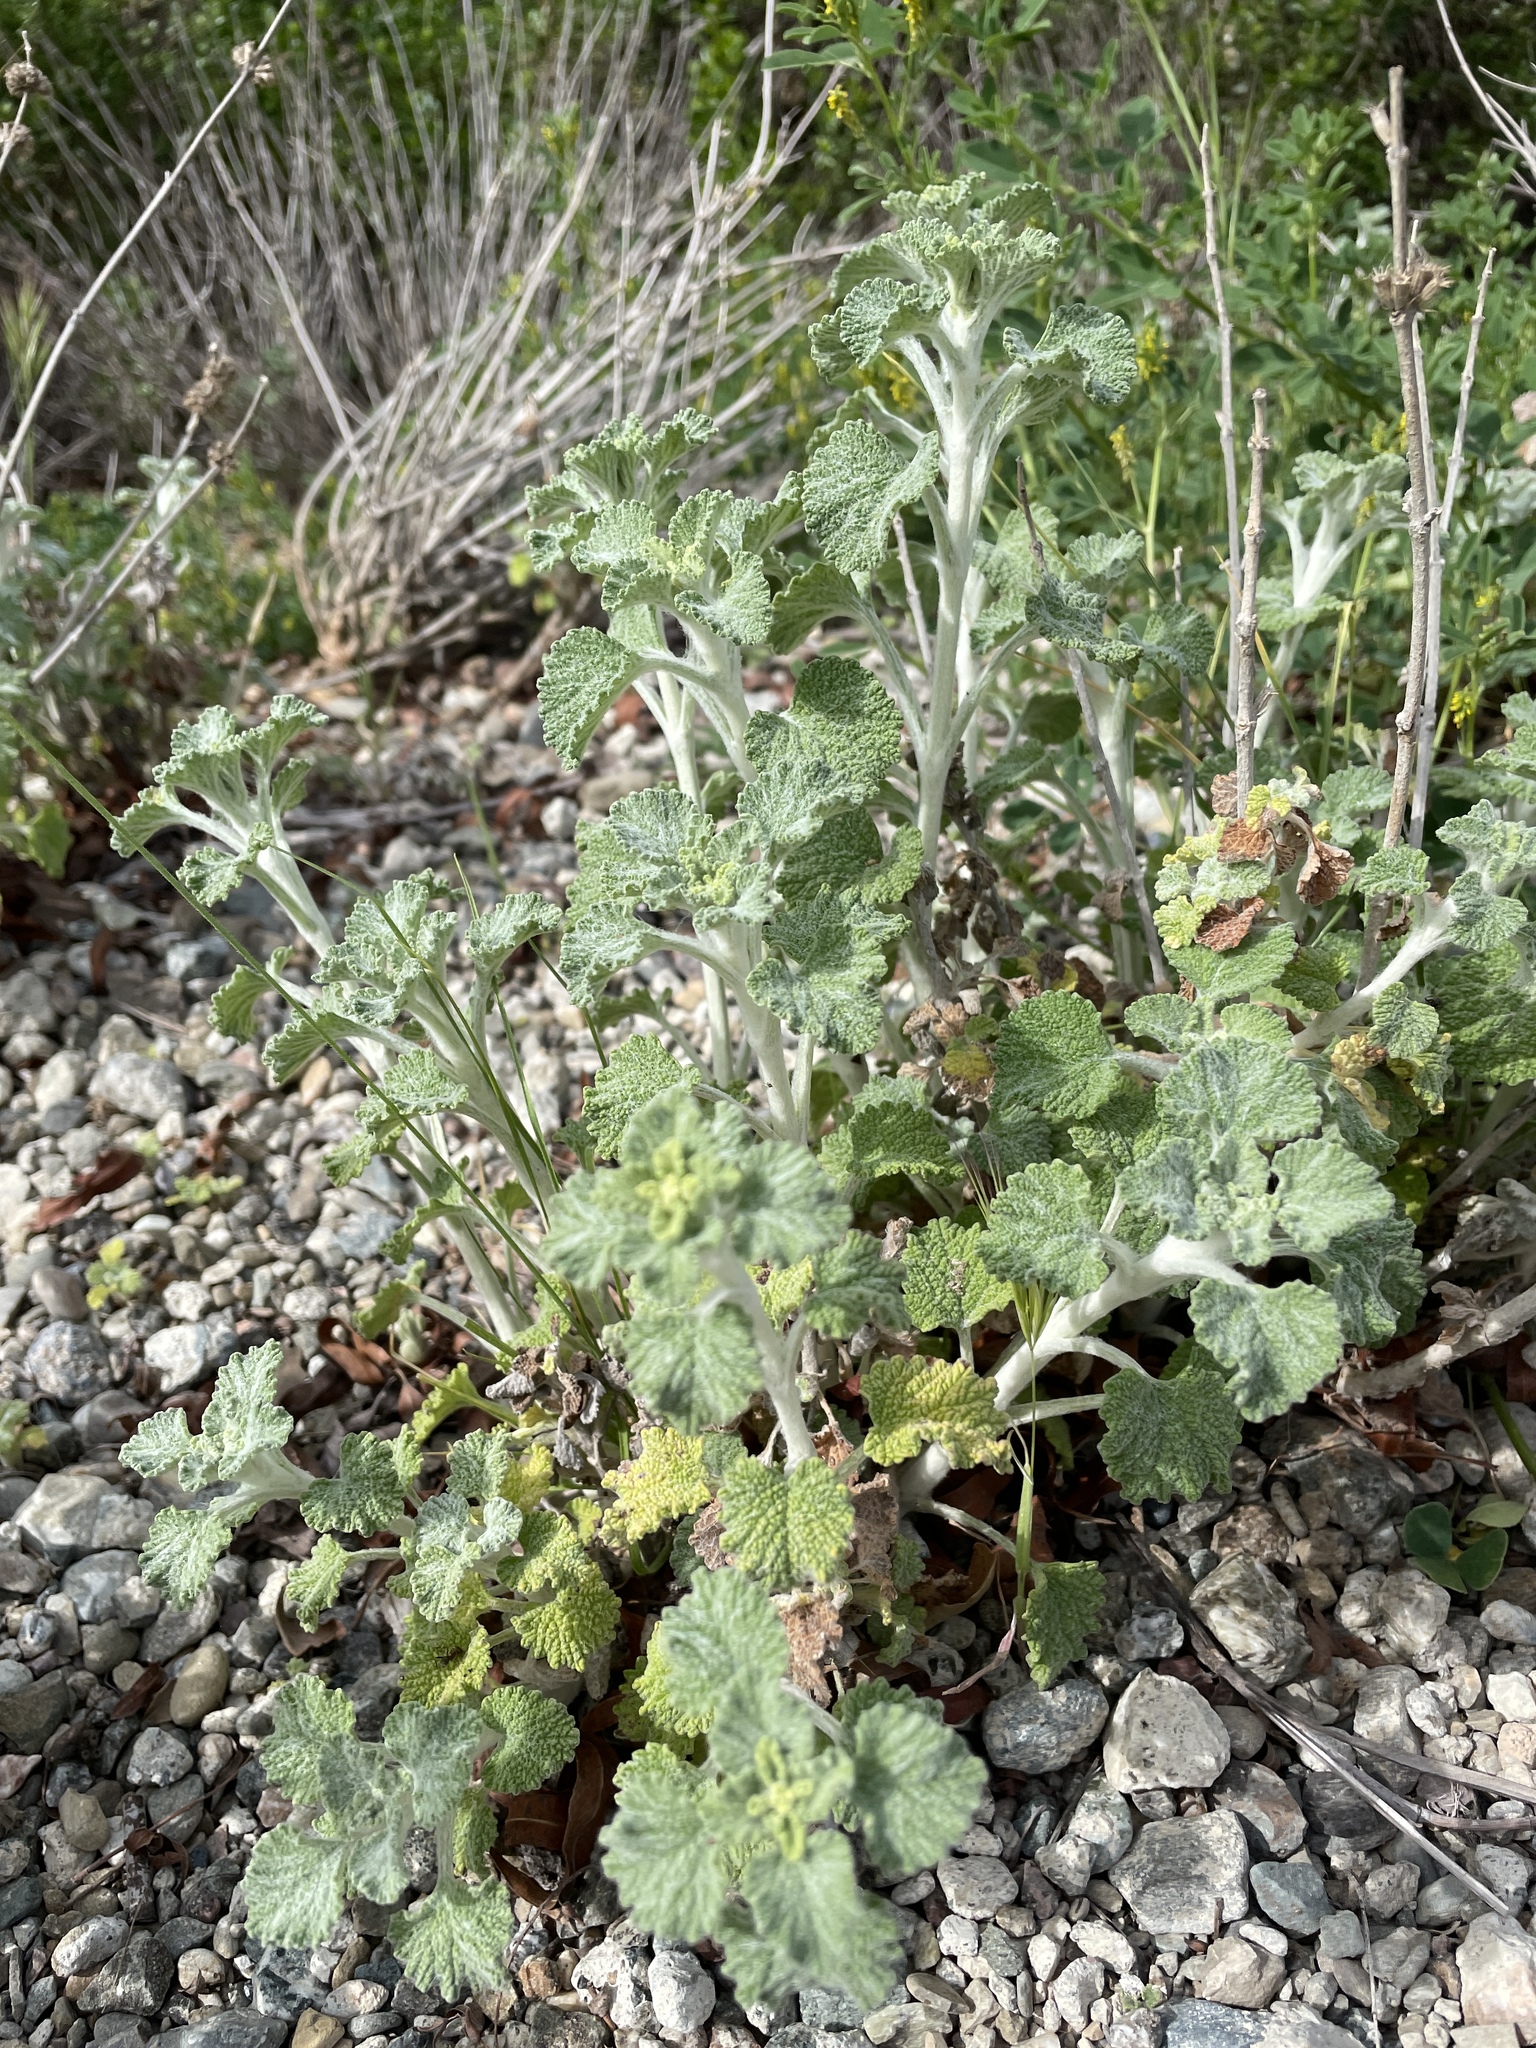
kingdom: Plantae
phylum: Tracheophyta
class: Magnoliopsida
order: Lamiales
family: Lamiaceae
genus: Marrubium
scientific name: Marrubium vulgare
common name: Horehound
